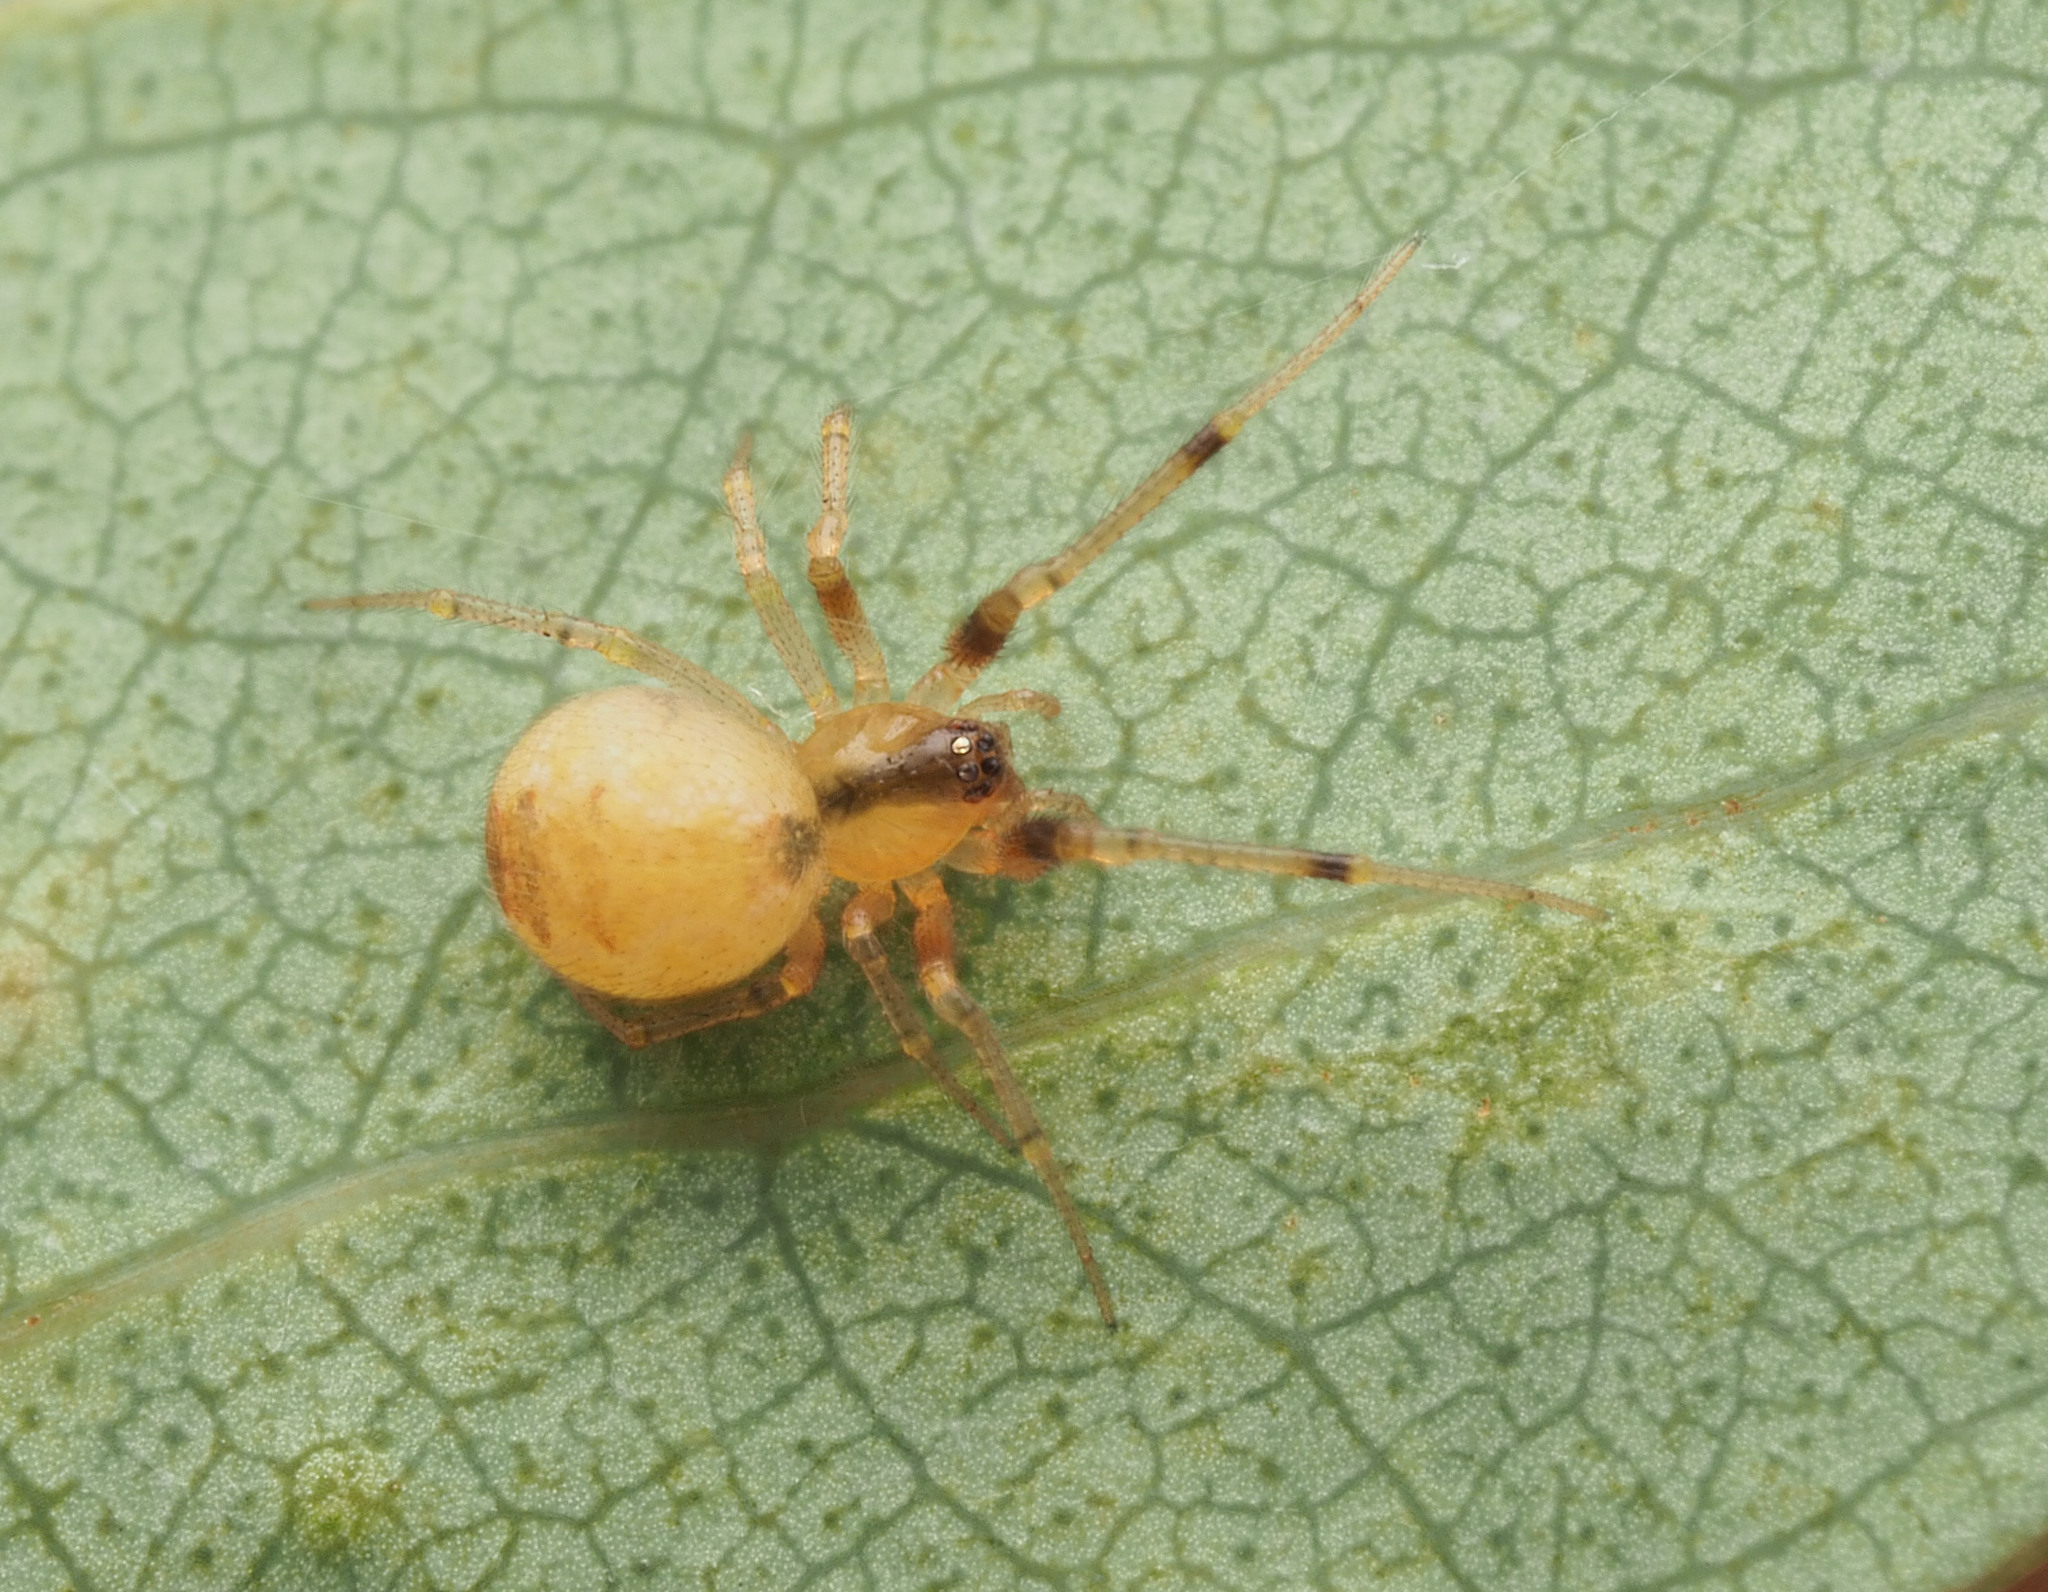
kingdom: Animalia
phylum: Arthropoda
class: Arachnida
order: Araneae
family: Theridiidae
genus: Anelosimus
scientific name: Anelosimus
